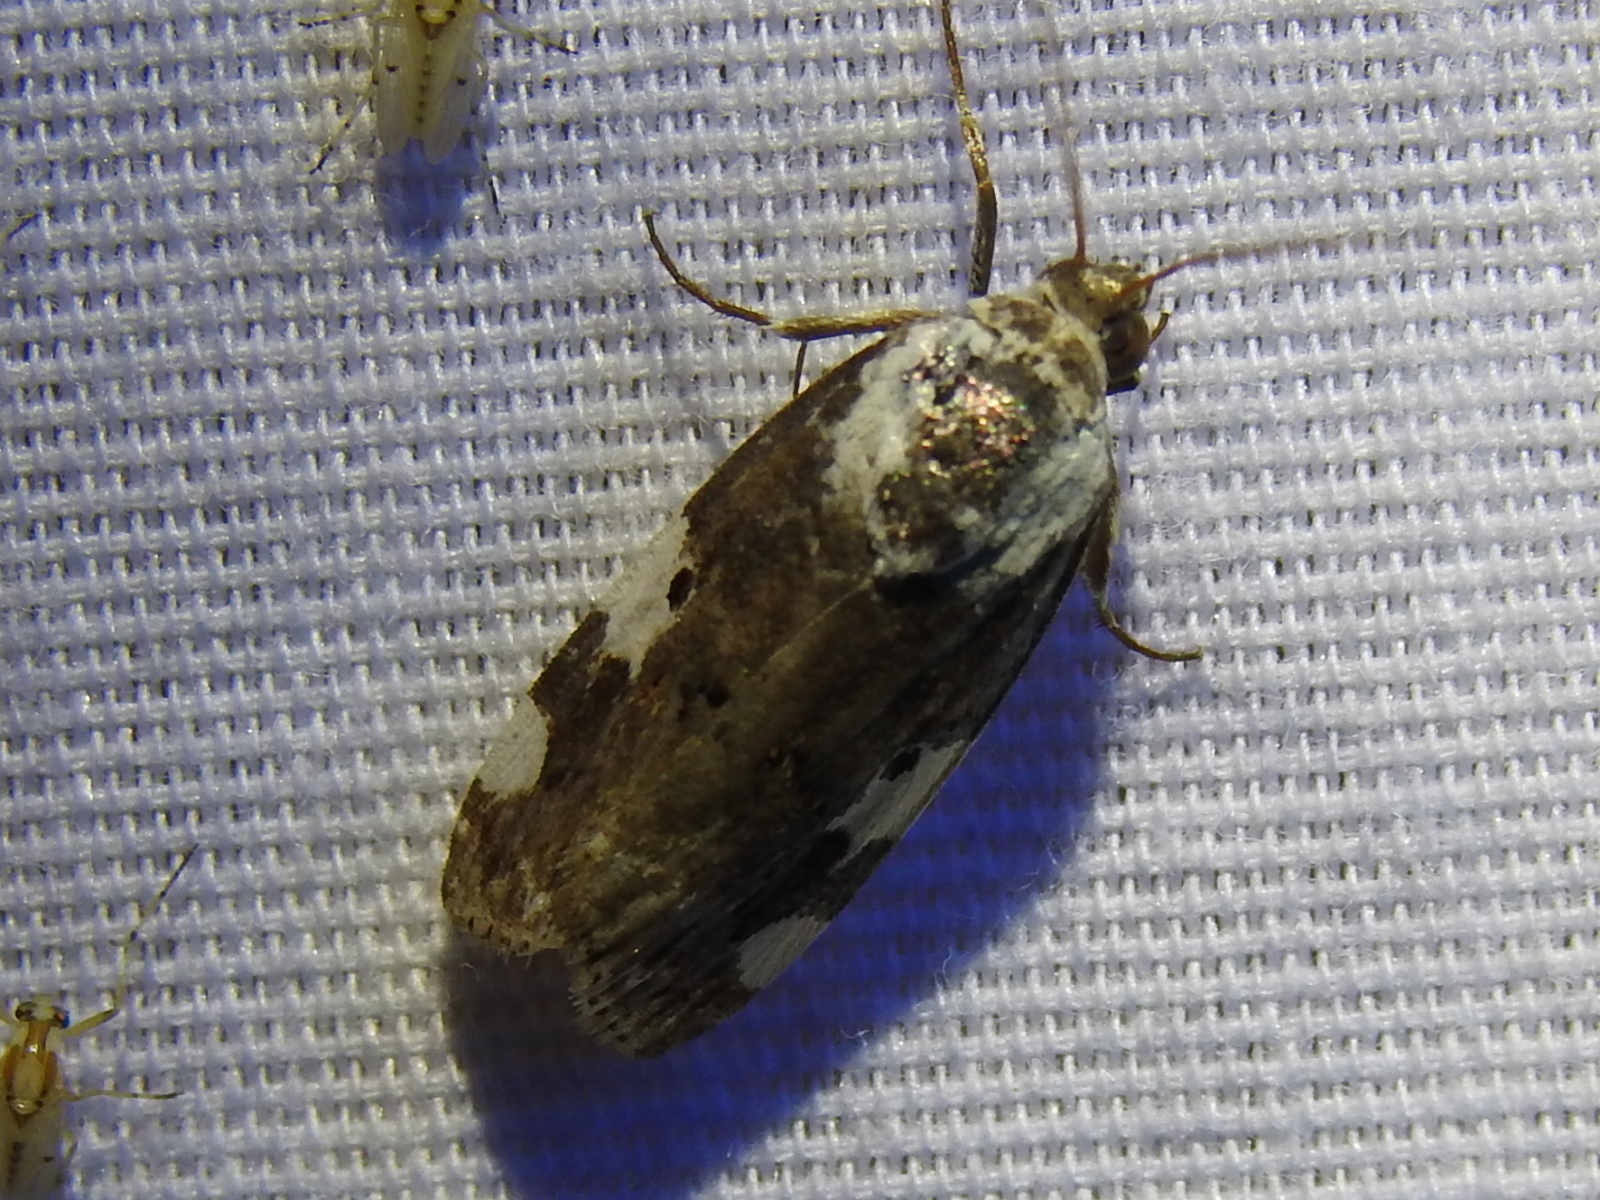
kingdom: Animalia
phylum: Arthropoda
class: Insecta
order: Lepidoptera
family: Noctuidae
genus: Acontia
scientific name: Acontia aprica
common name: Nun
